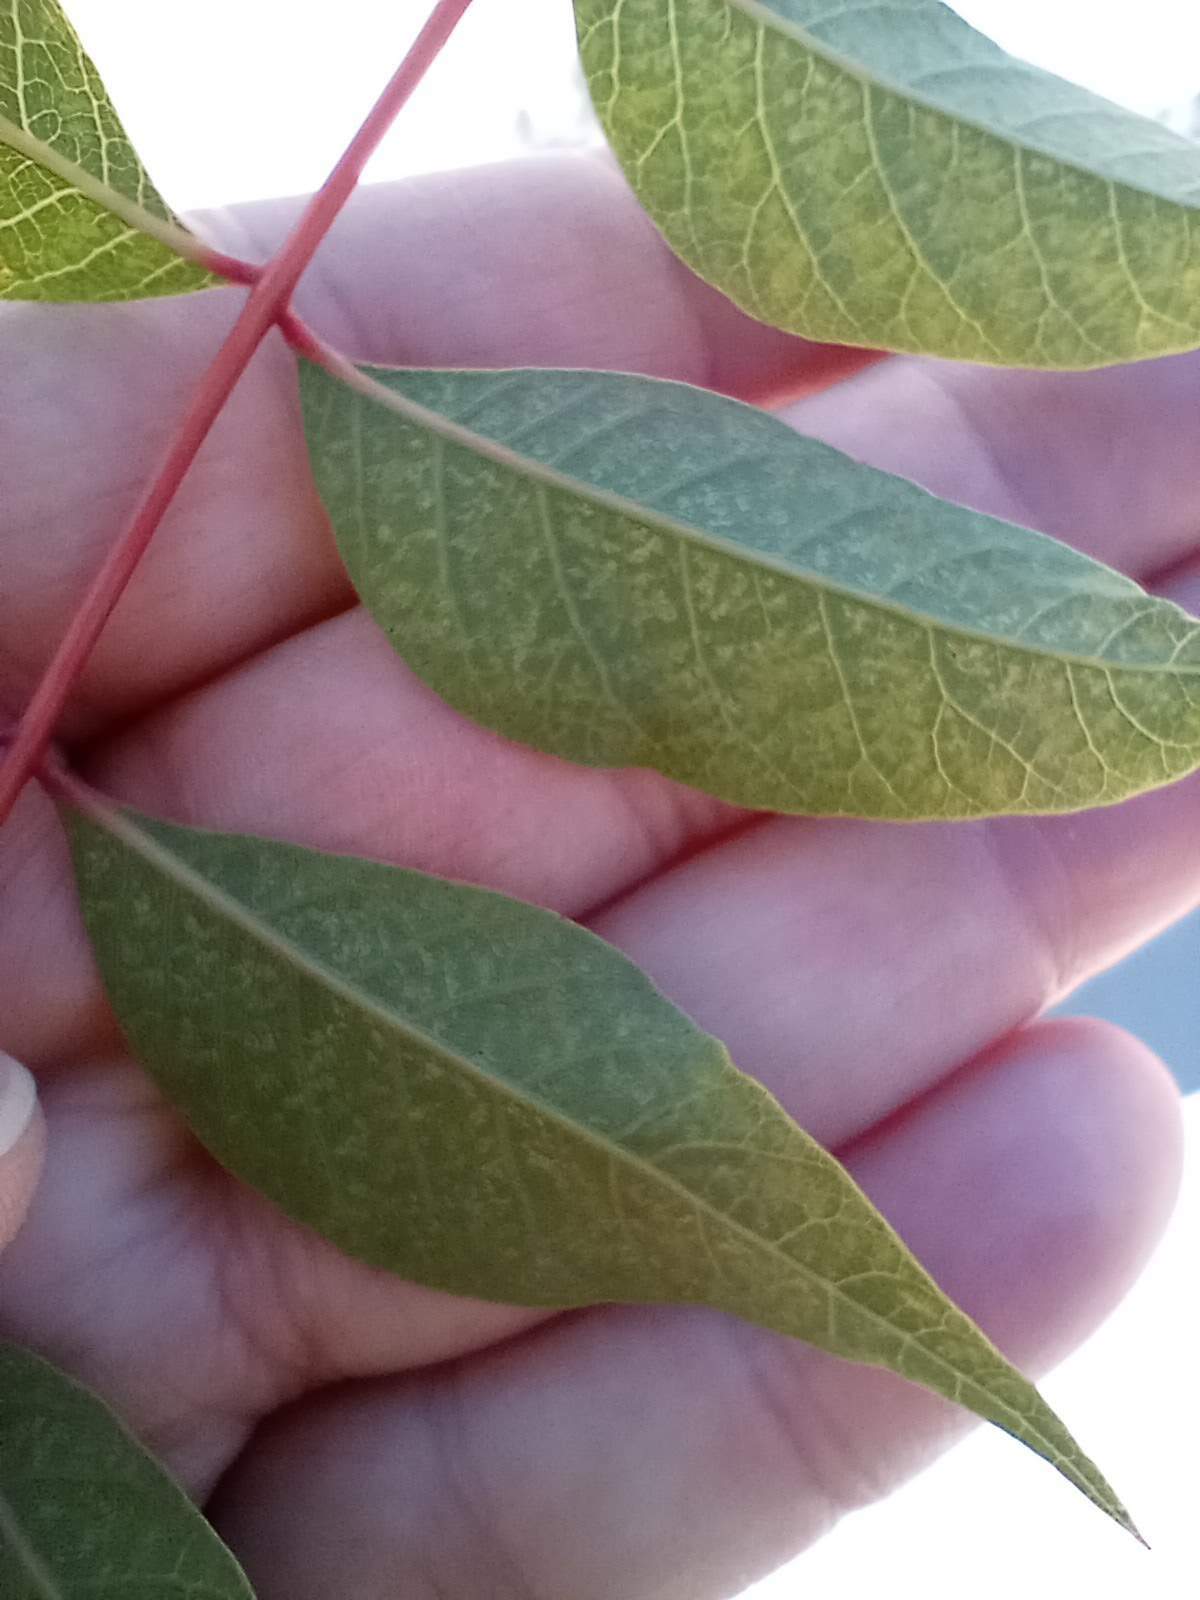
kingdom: Plantae
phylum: Tracheophyta
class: Magnoliopsida
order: Sapindales
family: Anacardiaceae
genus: Pistacia
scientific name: Pistacia chinensis
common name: Chinese pistache
